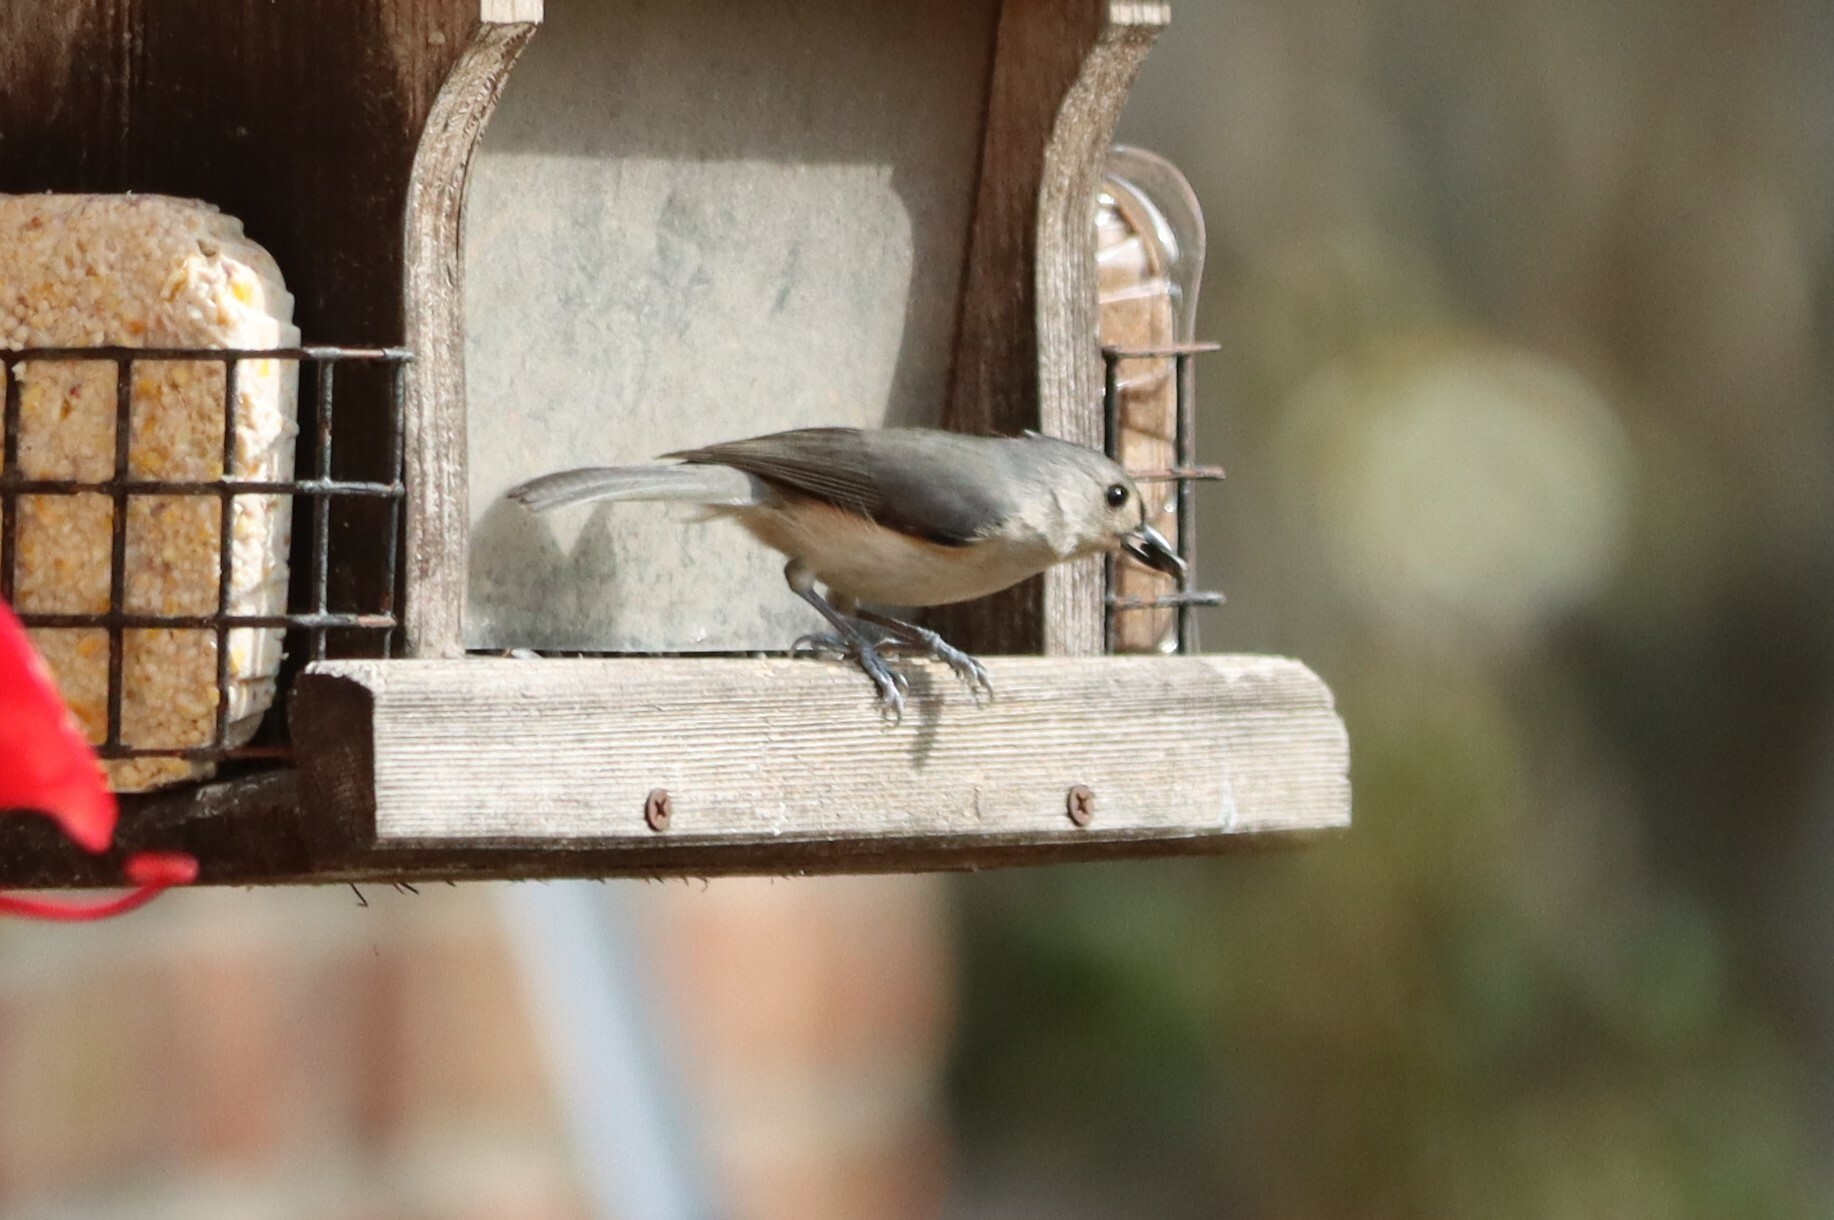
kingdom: Animalia
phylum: Chordata
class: Aves
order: Passeriformes
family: Paridae
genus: Baeolophus
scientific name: Baeolophus bicolor
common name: Tufted titmouse
